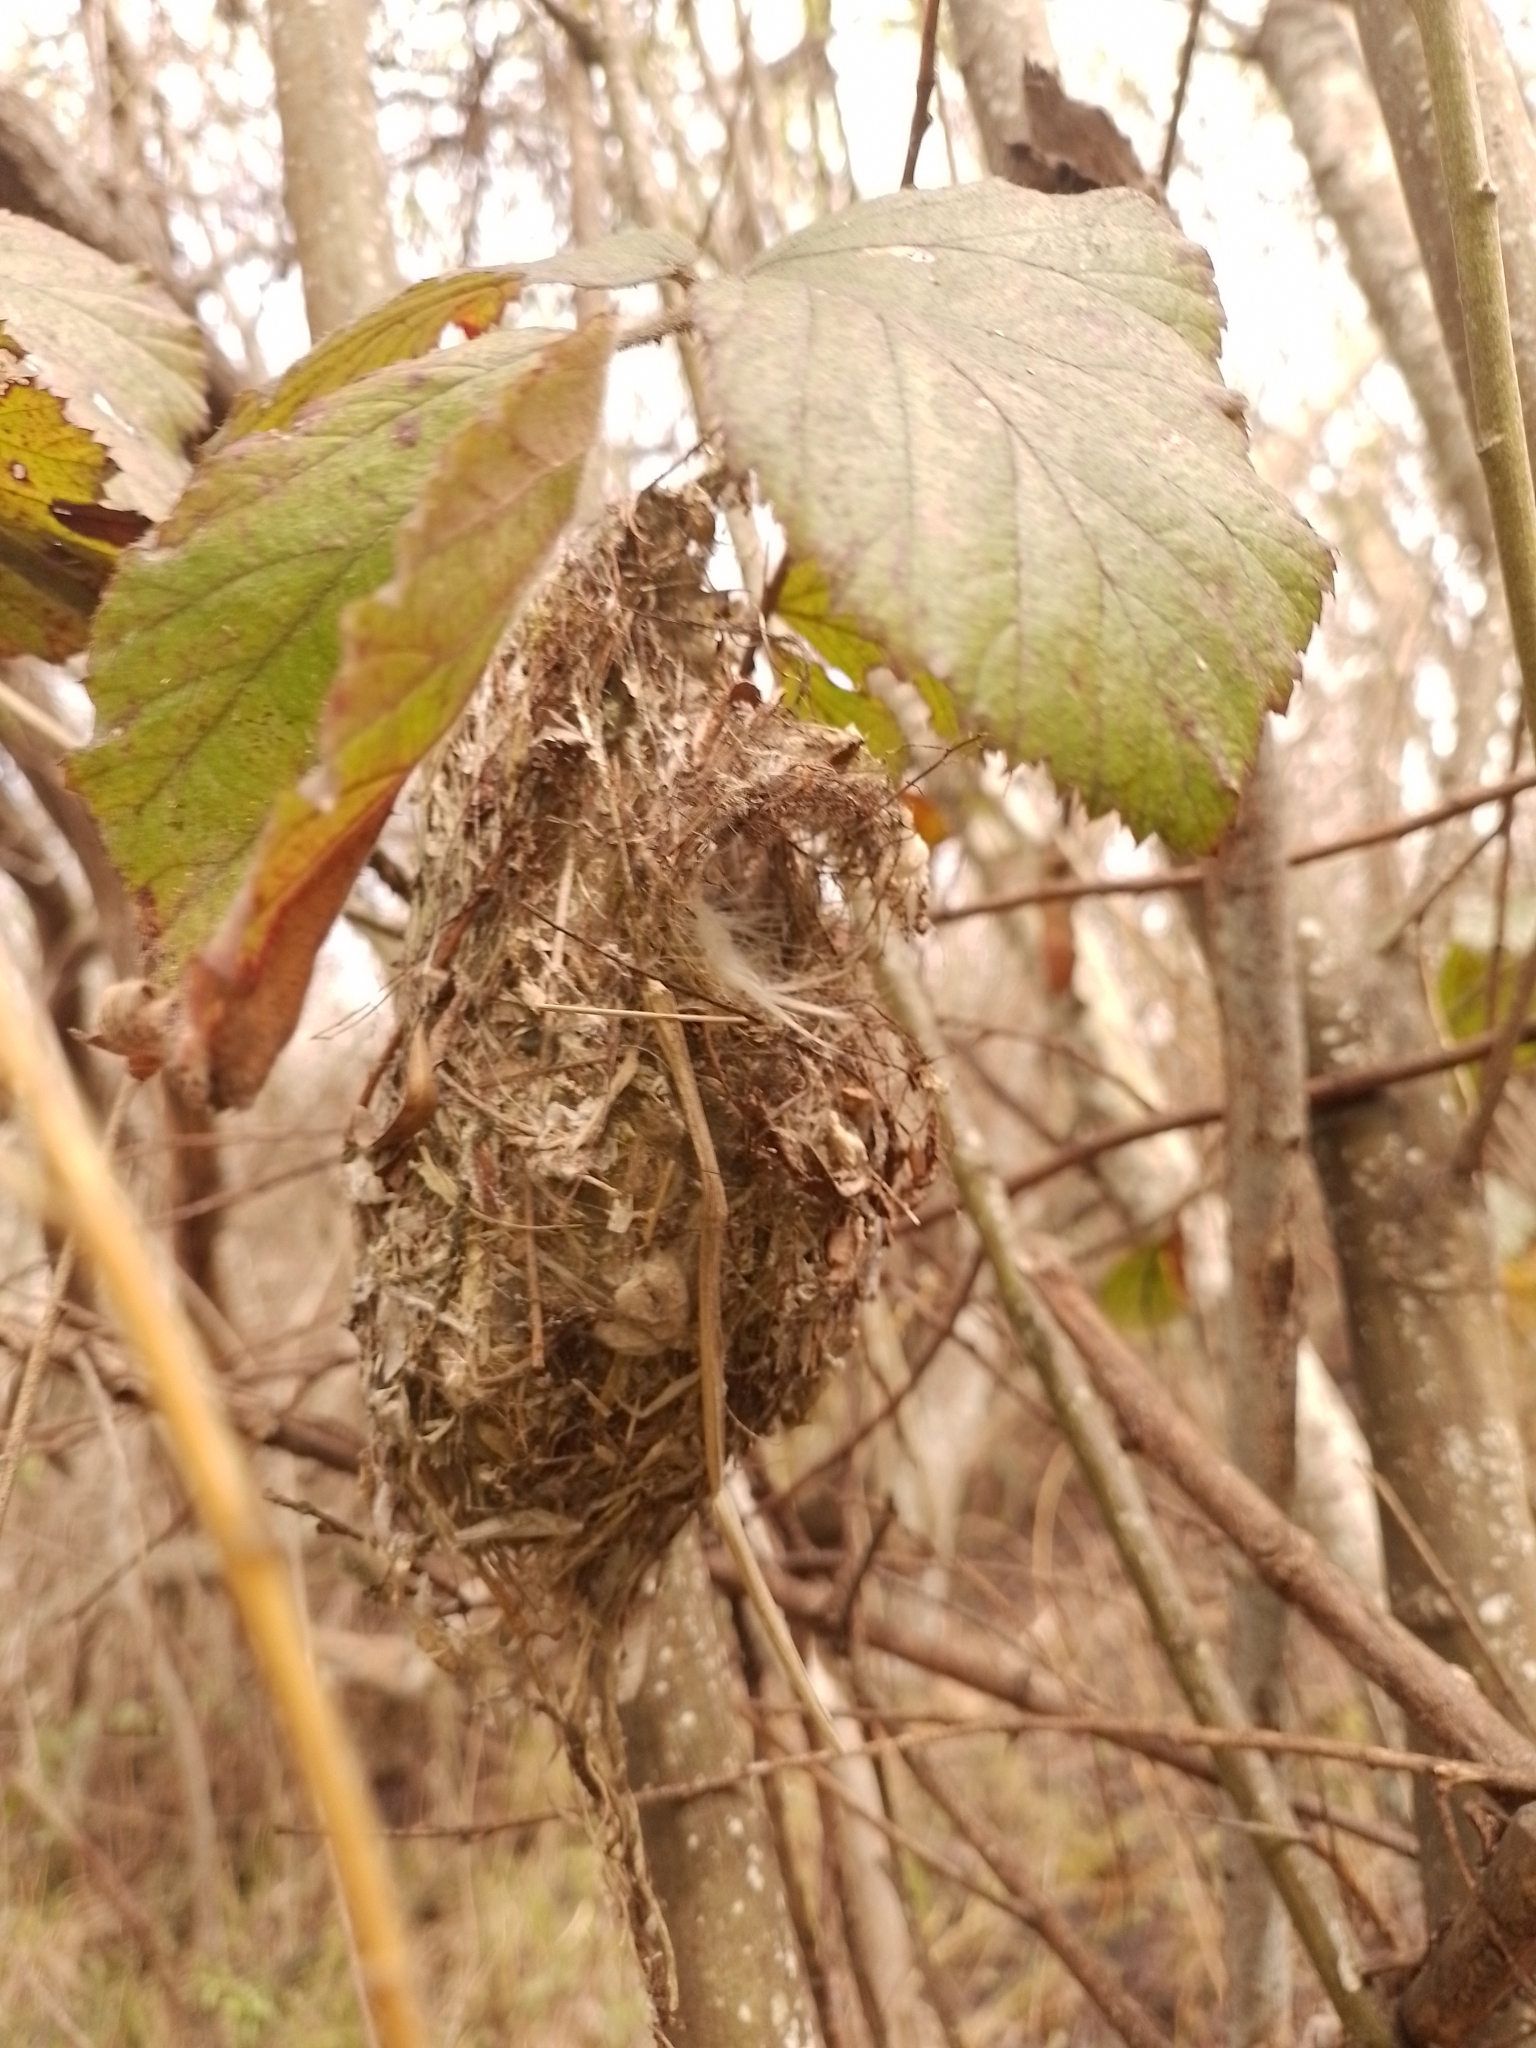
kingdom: Animalia
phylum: Chordata
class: Aves
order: Passeriformes
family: Acanthizidae
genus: Gerygone
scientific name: Gerygone igata
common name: Grey gerygone
